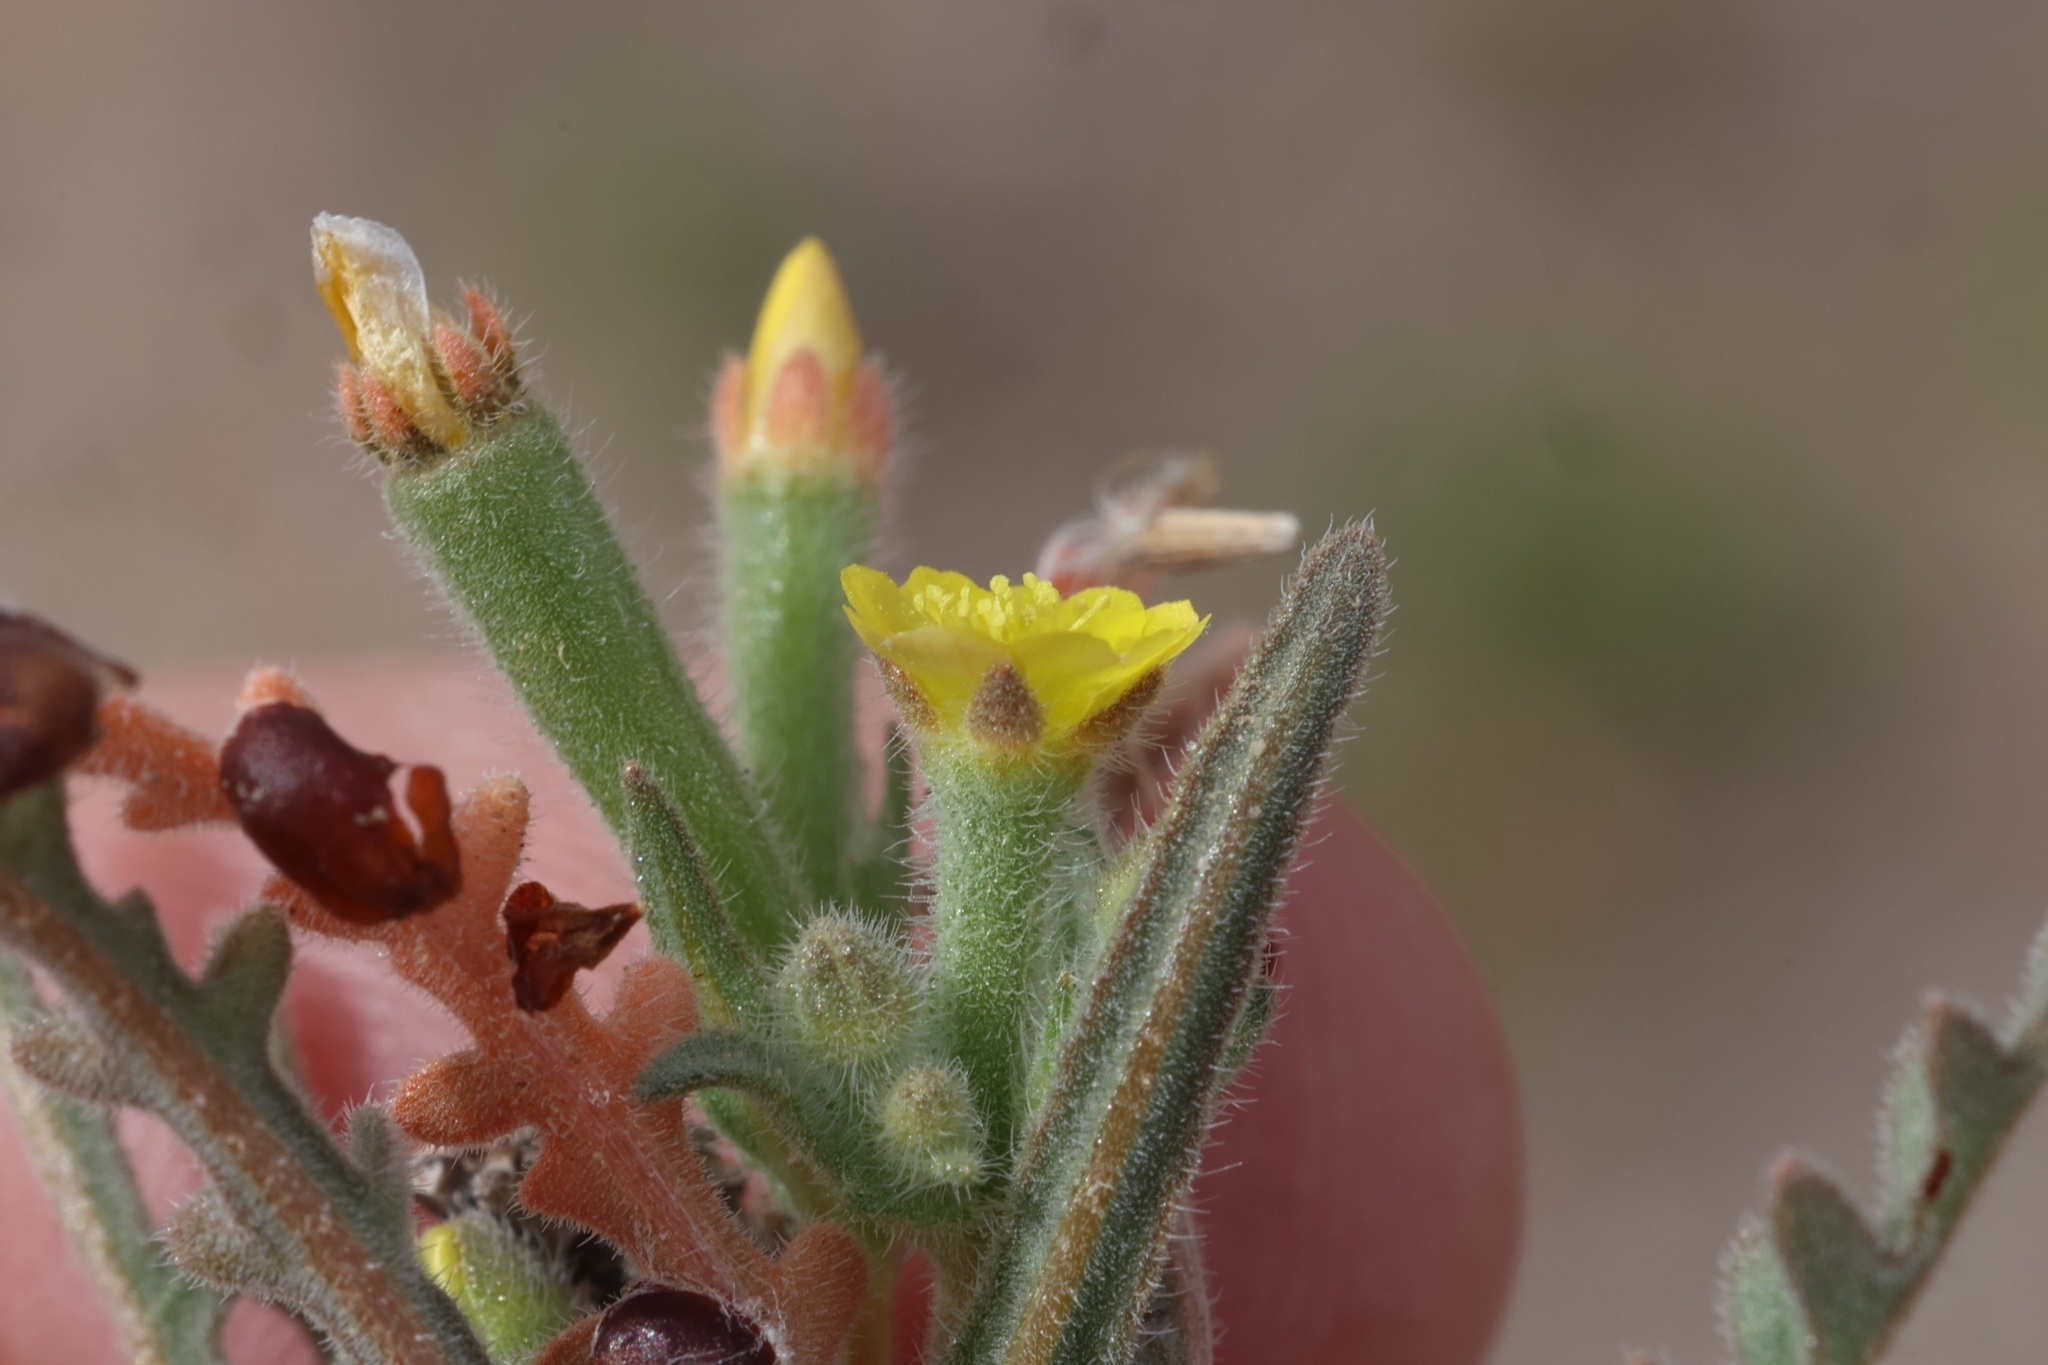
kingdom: Plantae
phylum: Tracheophyta
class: Magnoliopsida
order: Cornales
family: Loasaceae
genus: Mentzelia
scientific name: Mentzelia albicaulis
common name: White-stem blazingstar
